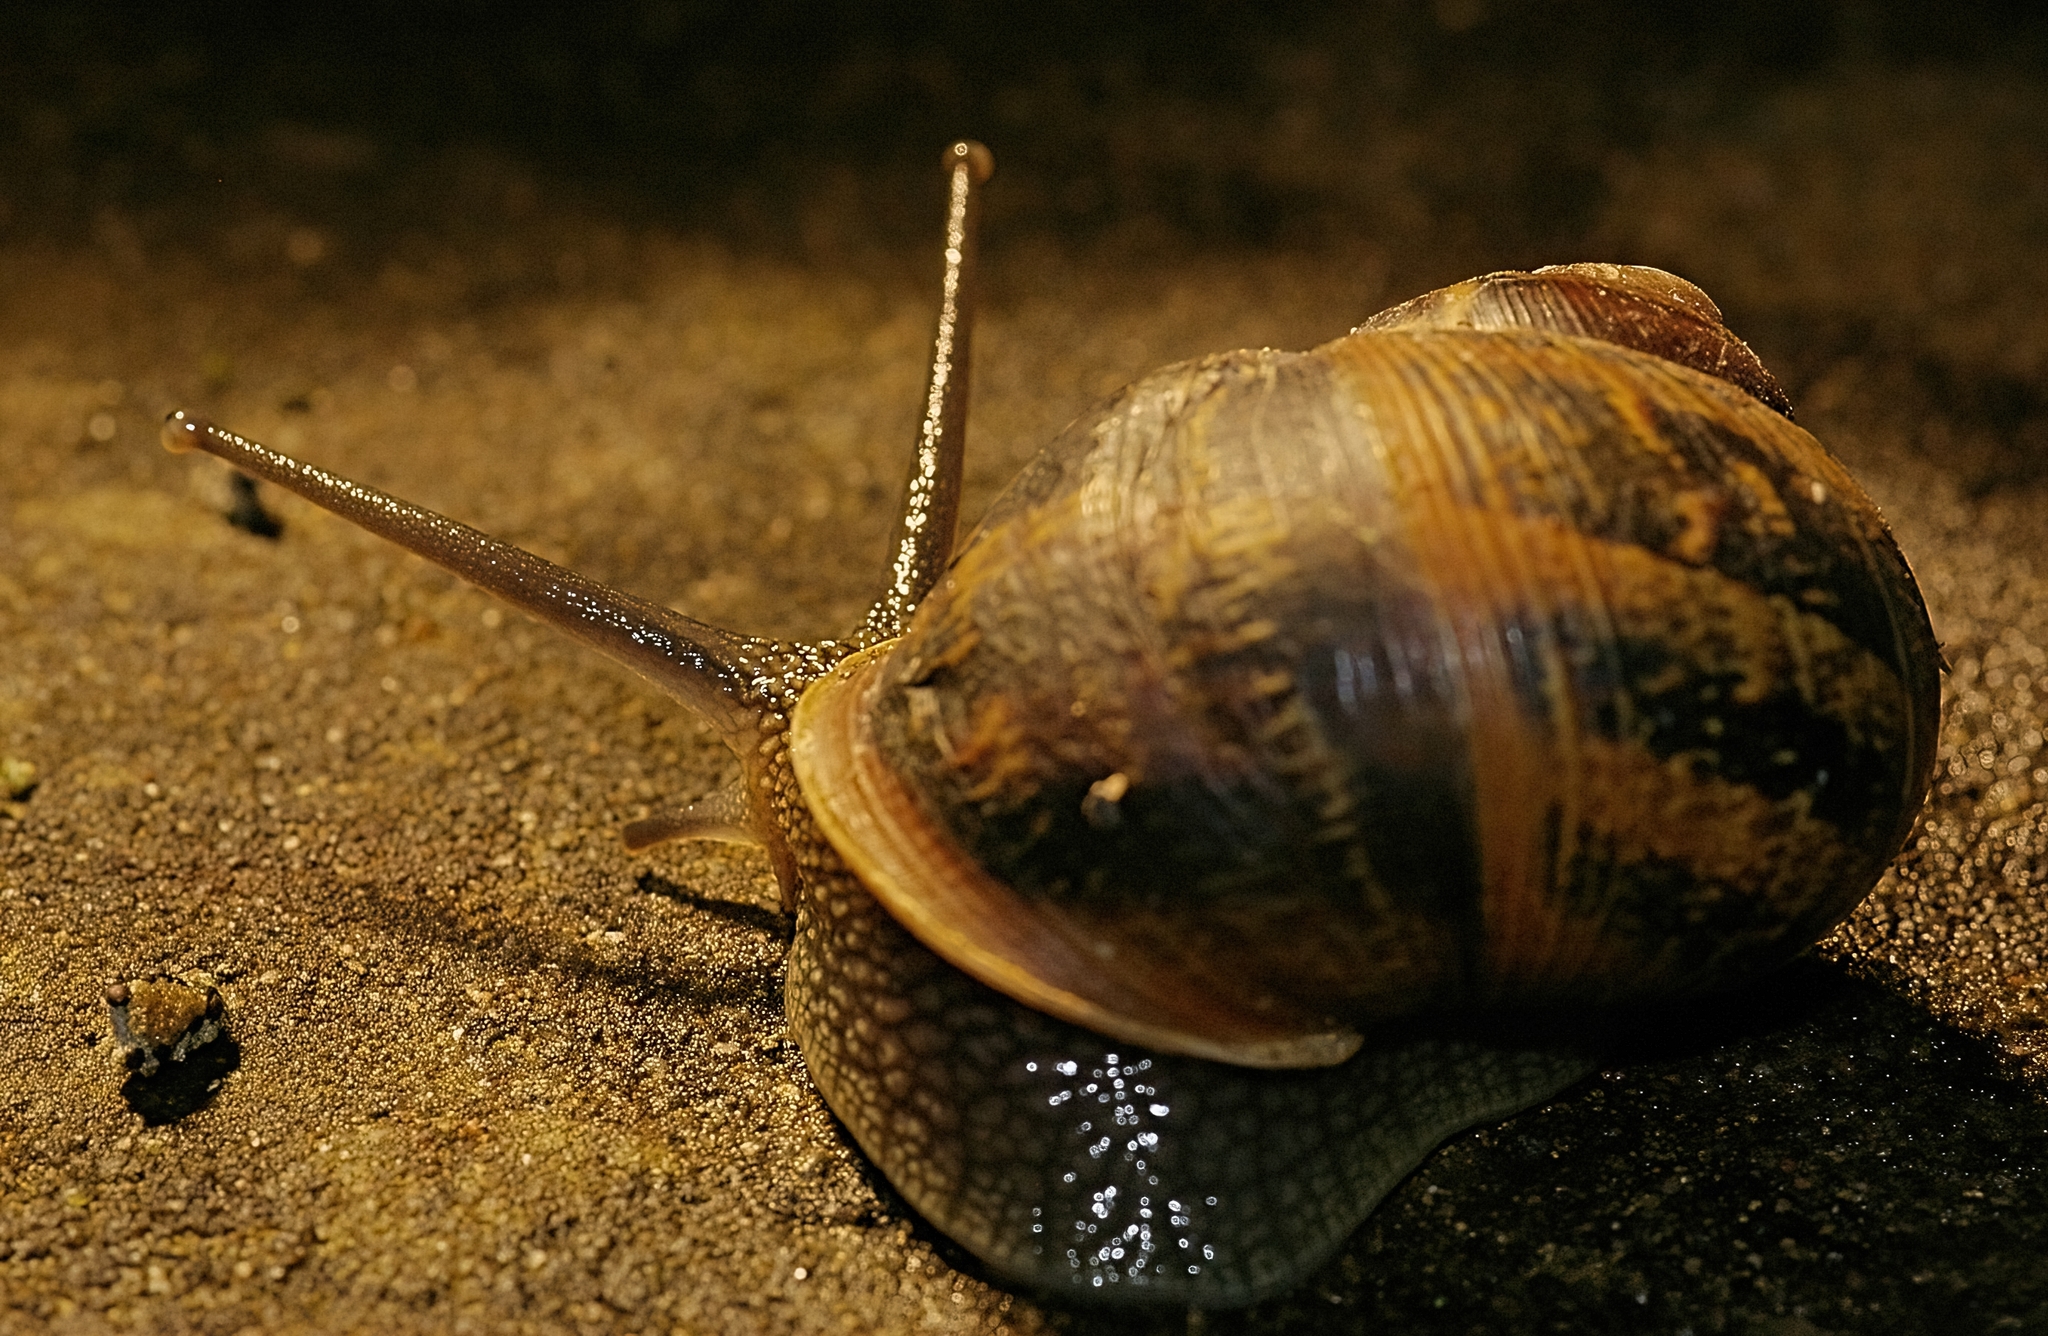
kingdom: Animalia
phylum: Mollusca
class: Gastropoda
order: Stylommatophora
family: Helicidae
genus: Cornu
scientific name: Cornu aspersum
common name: Brown garden snail
